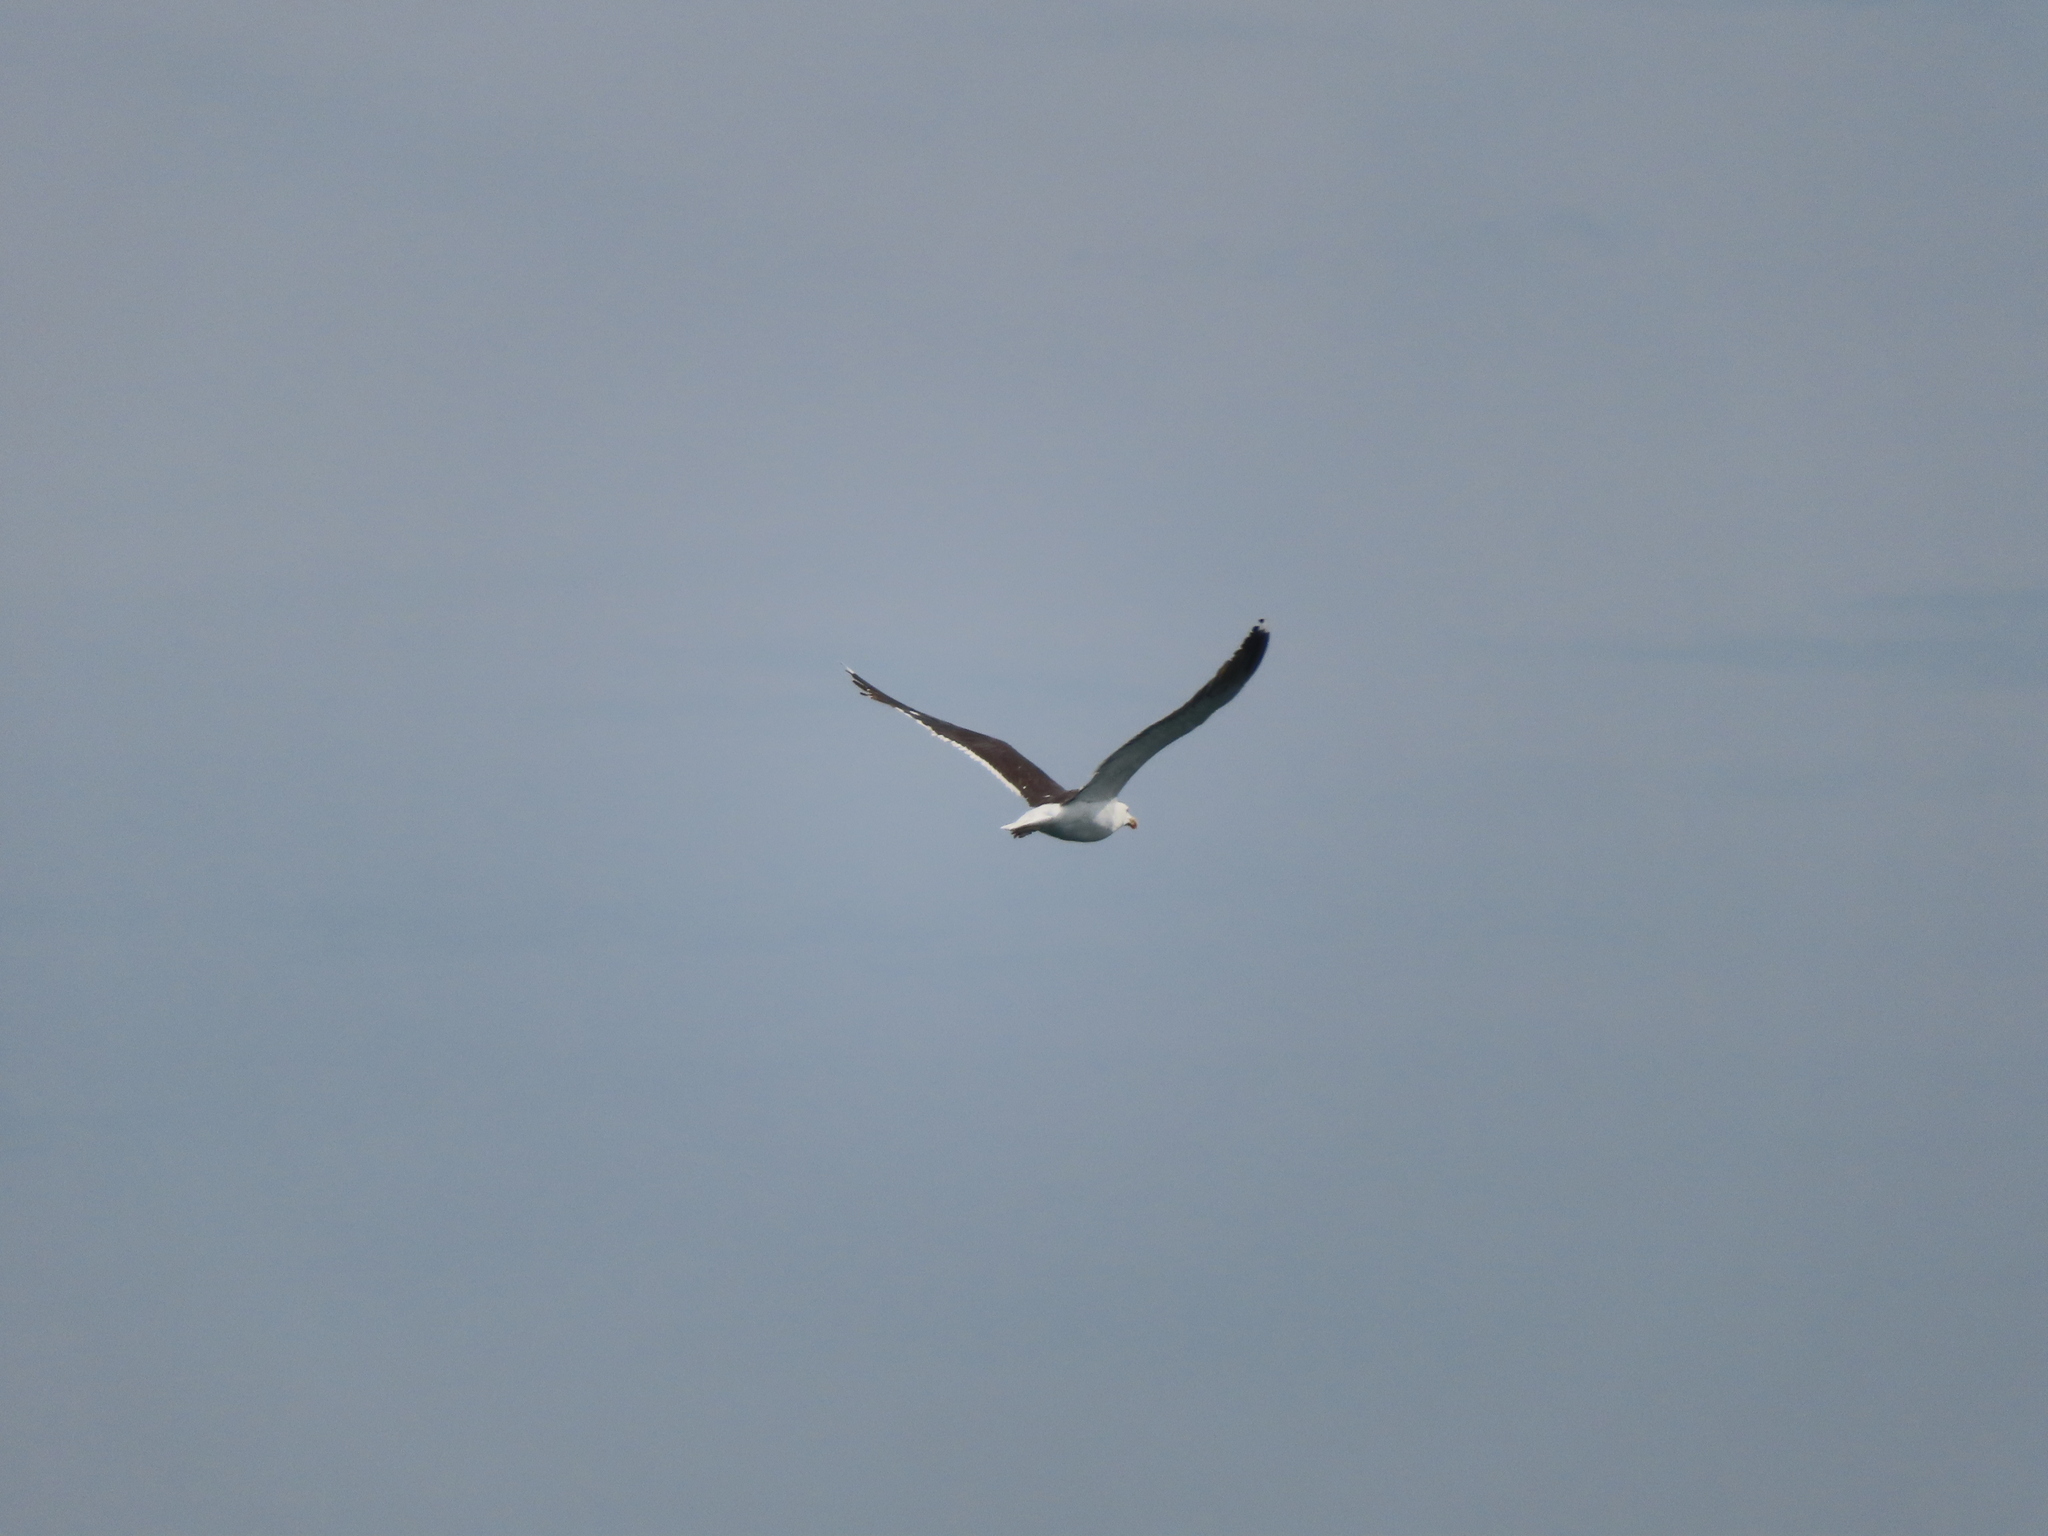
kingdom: Animalia
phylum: Chordata
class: Aves
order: Charadriiformes
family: Laridae
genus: Larus
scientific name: Larus marinus
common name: Great black-backed gull
